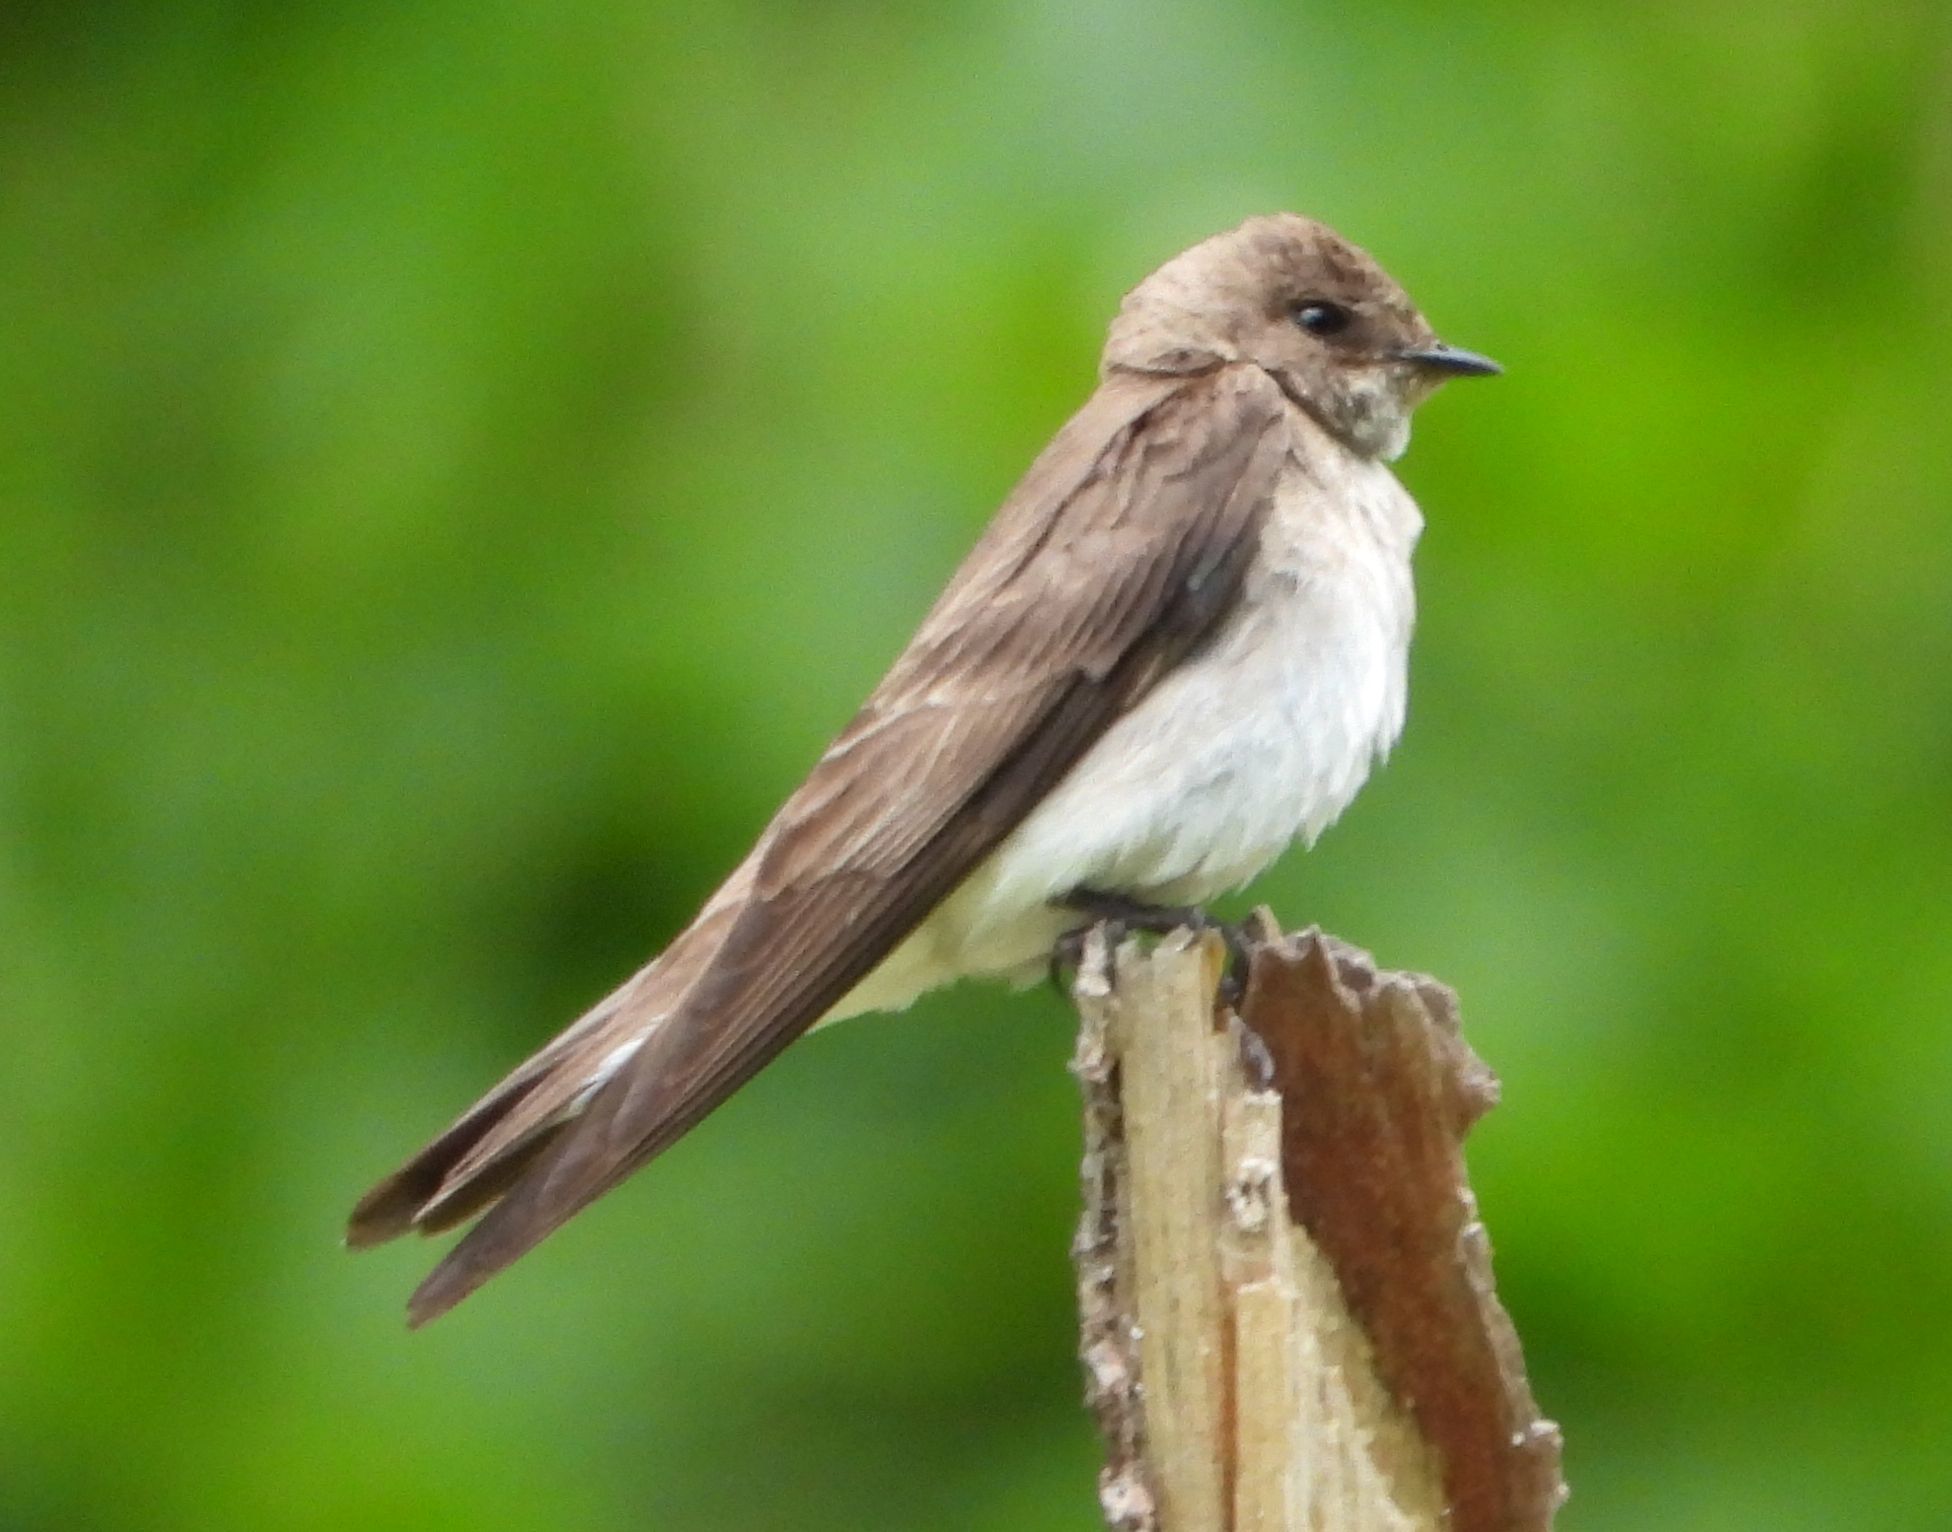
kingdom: Animalia
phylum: Chordata
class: Aves
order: Passeriformes
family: Hirundinidae
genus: Stelgidopteryx
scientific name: Stelgidopteryx serripennis
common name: Northern rough-winged swallow
